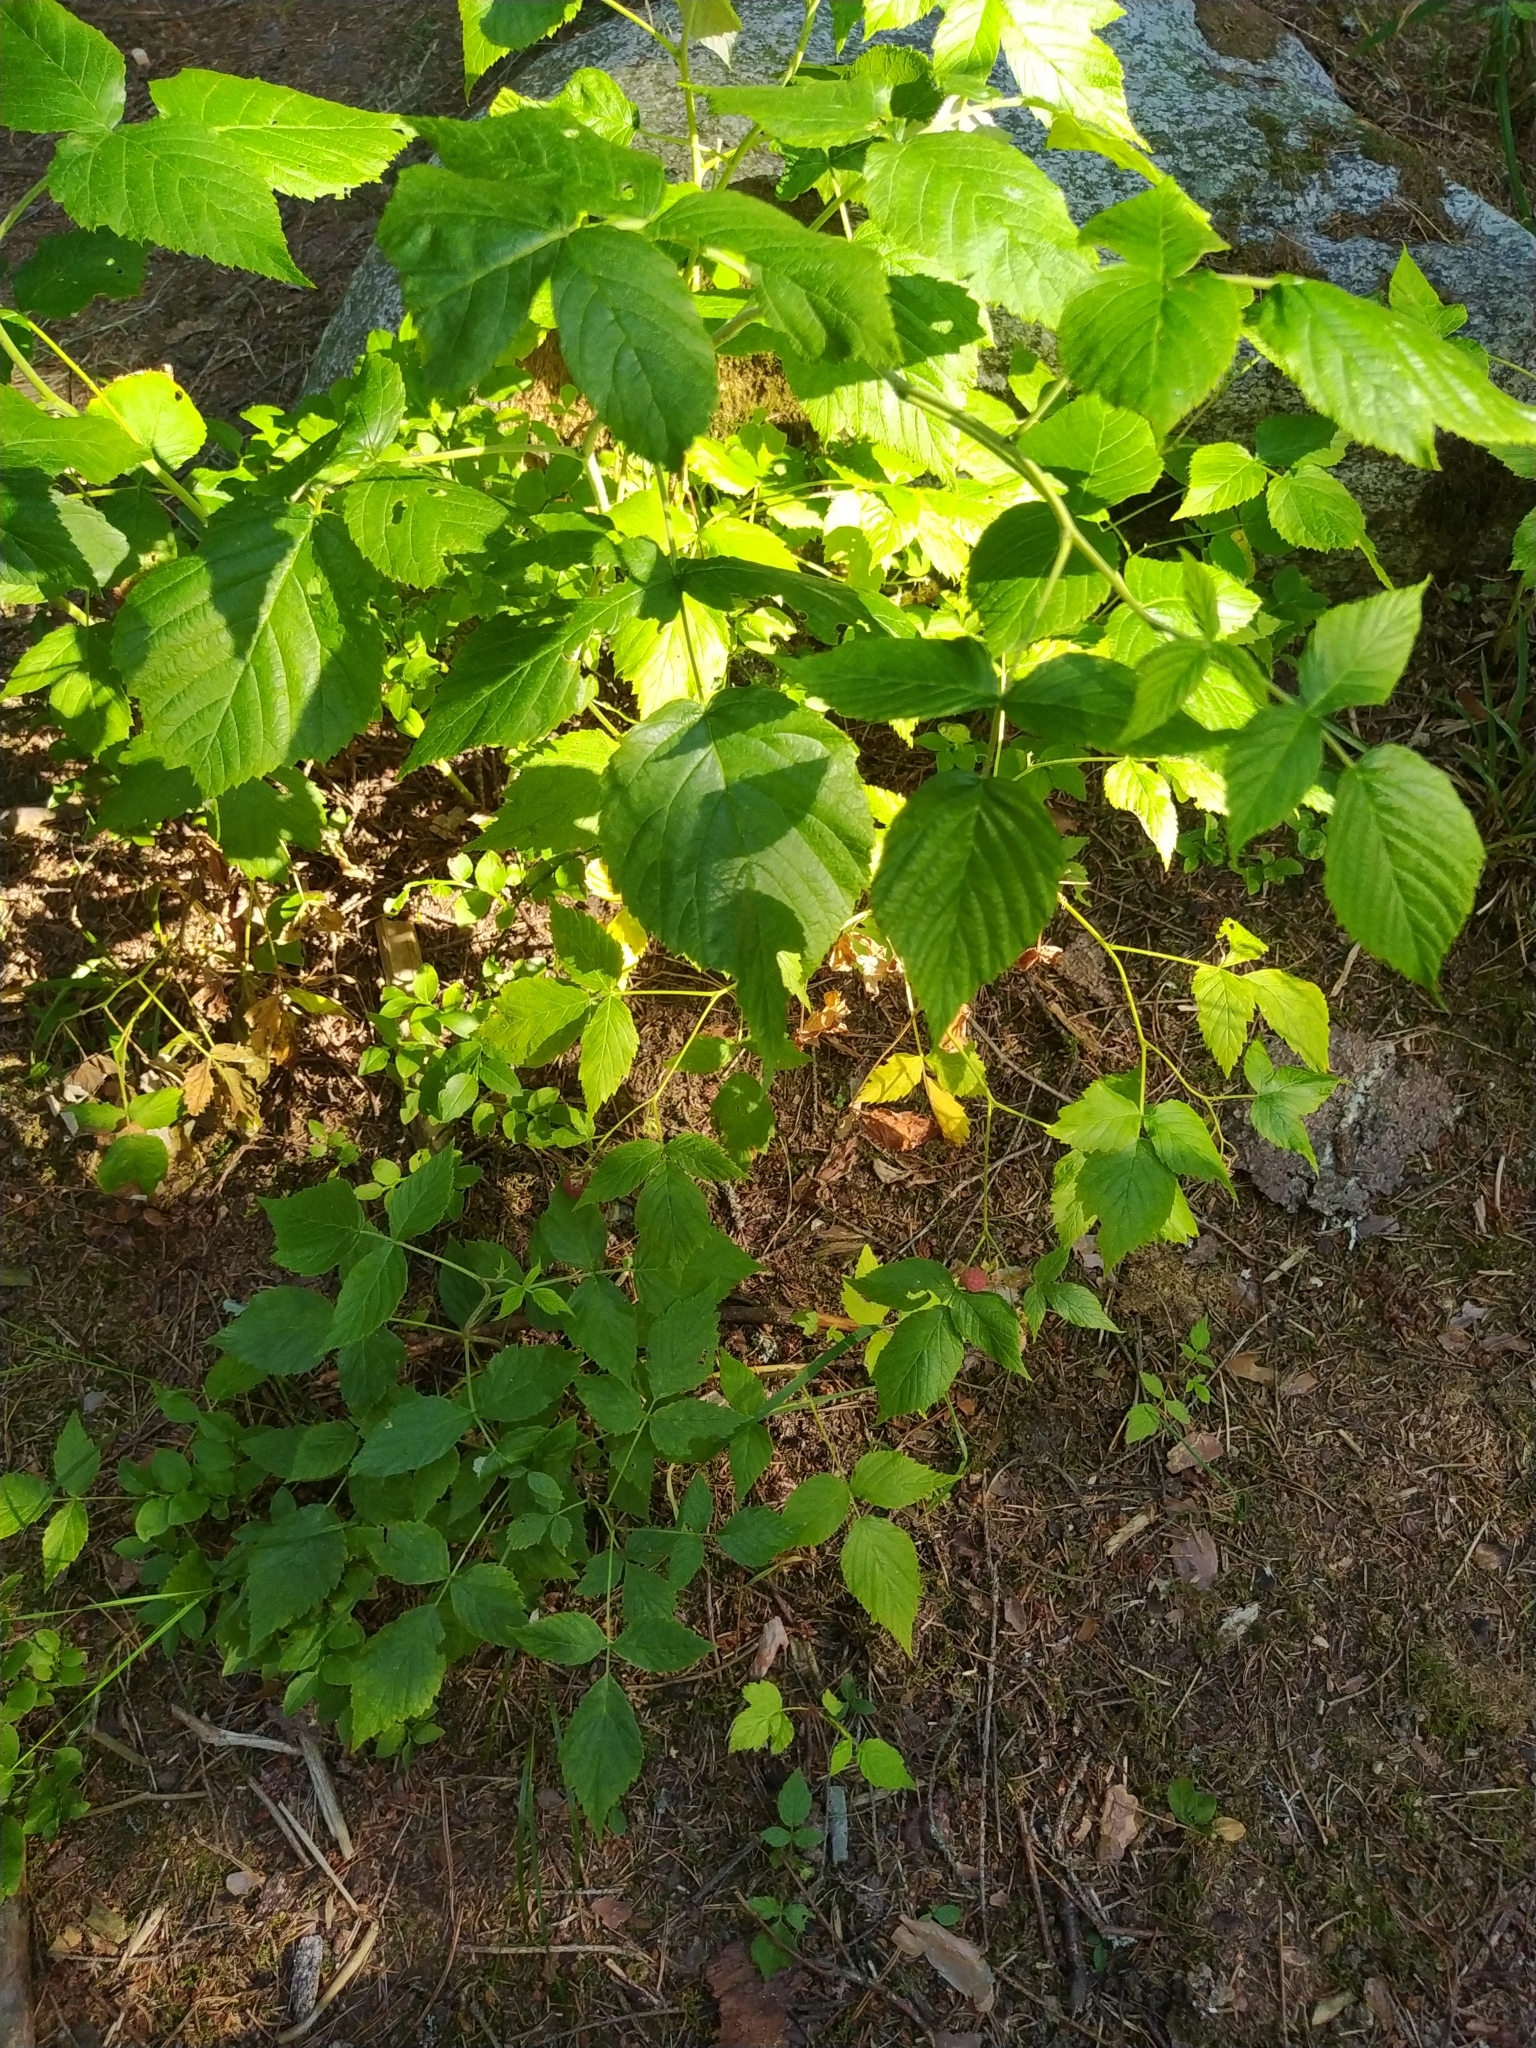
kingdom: Plantae
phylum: Tracheophyta
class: Magnoliopsida
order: Rosales
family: Rosaceae
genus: Rubus
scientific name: Rubus idaeus
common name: Raspberry
